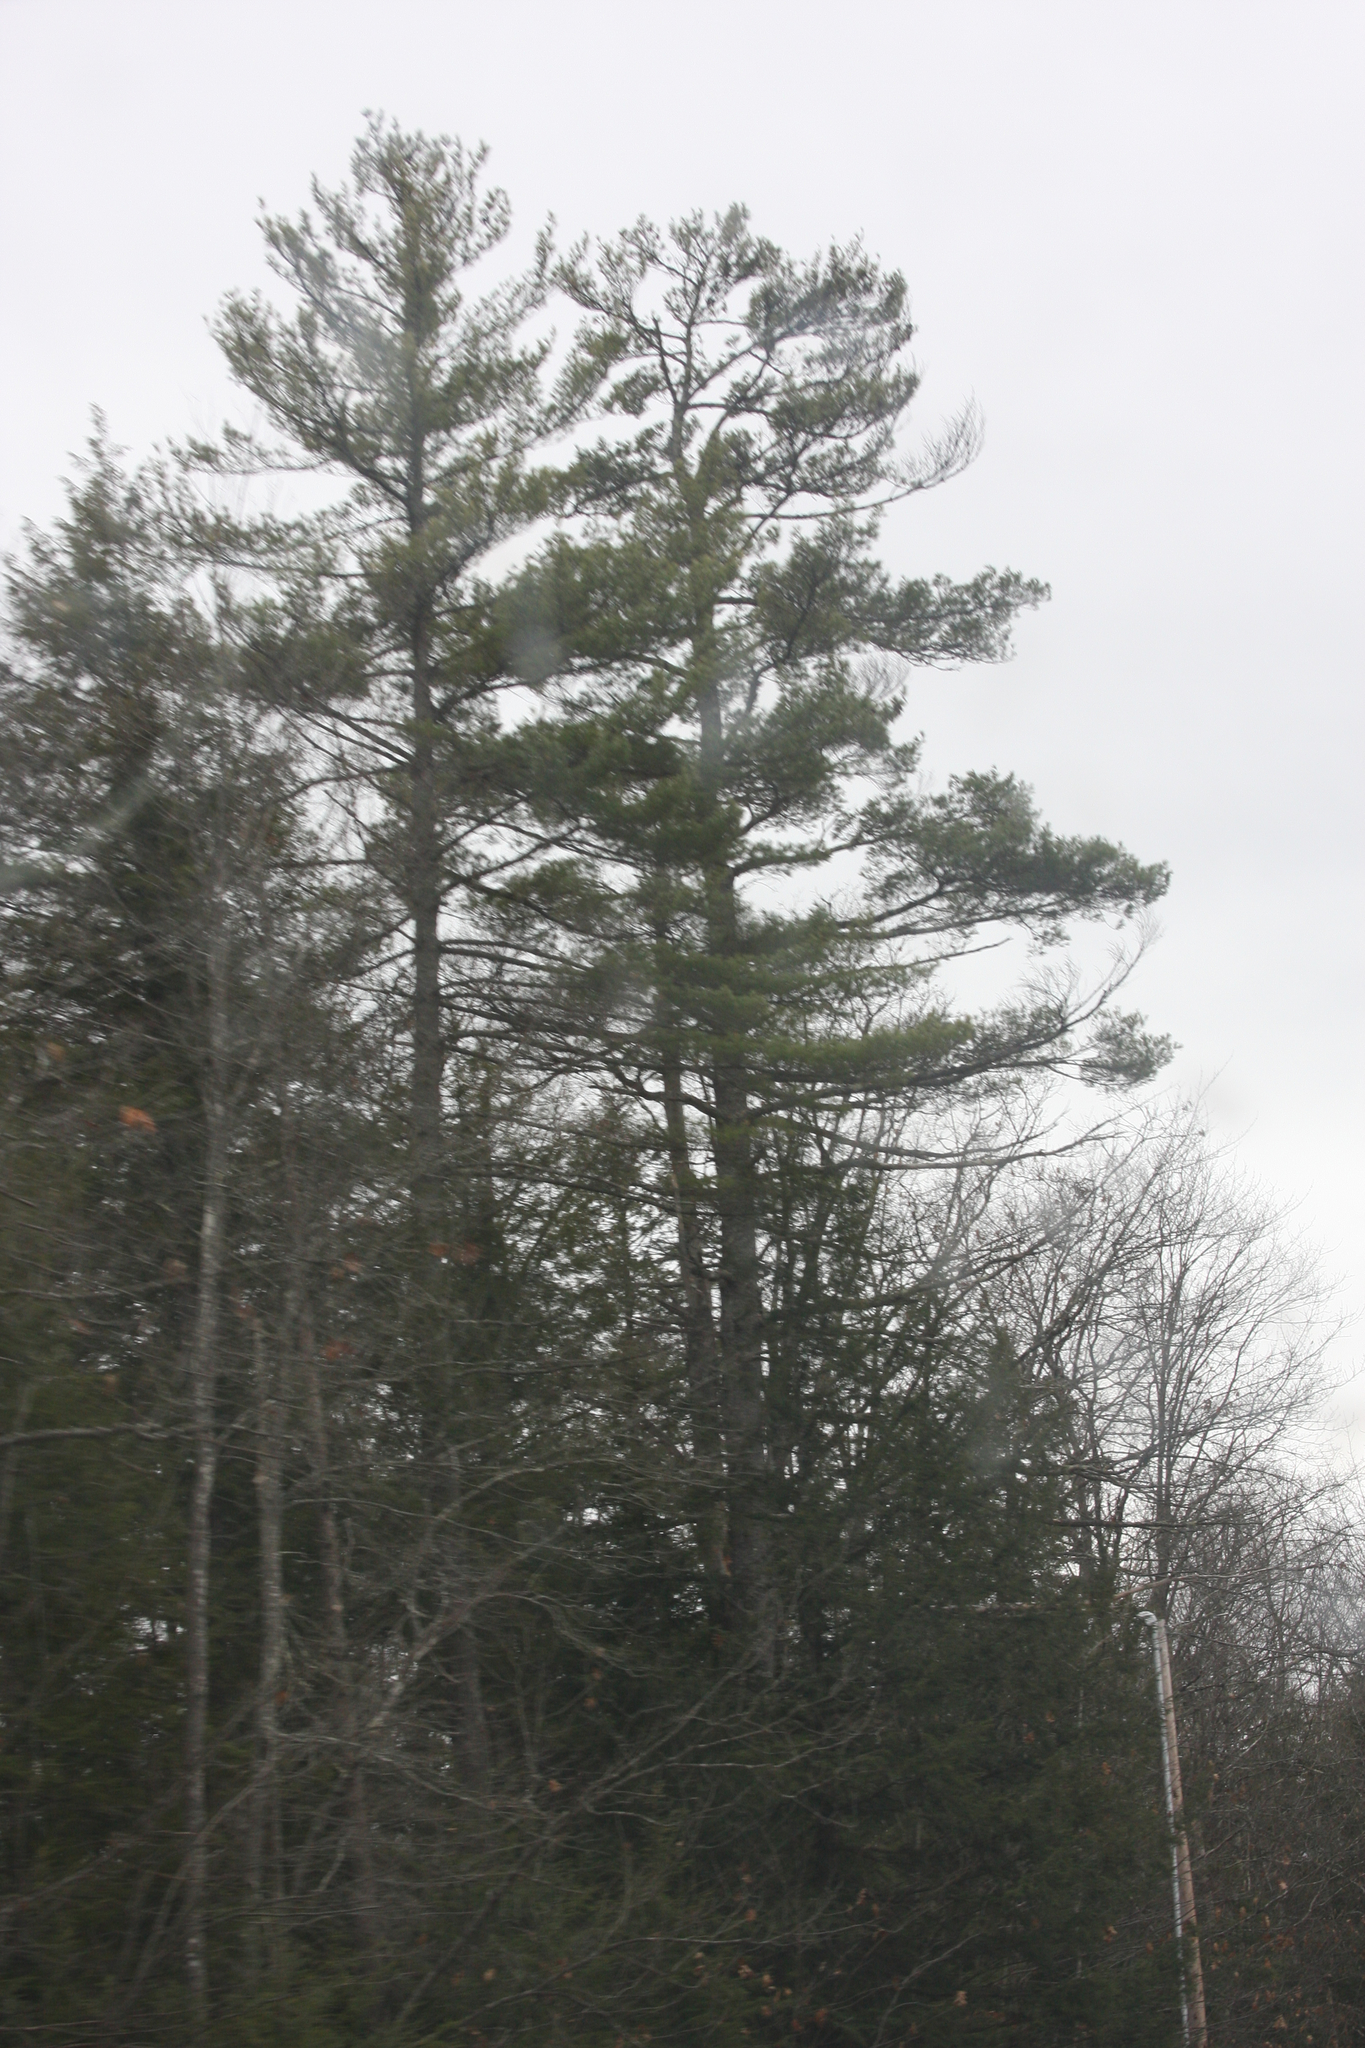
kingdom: Plantae
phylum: Tracheophyta
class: Pinopsida
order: Pinales
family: Pinaceae
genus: Pinus
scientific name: Pinus strobus
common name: Weymouth pine
